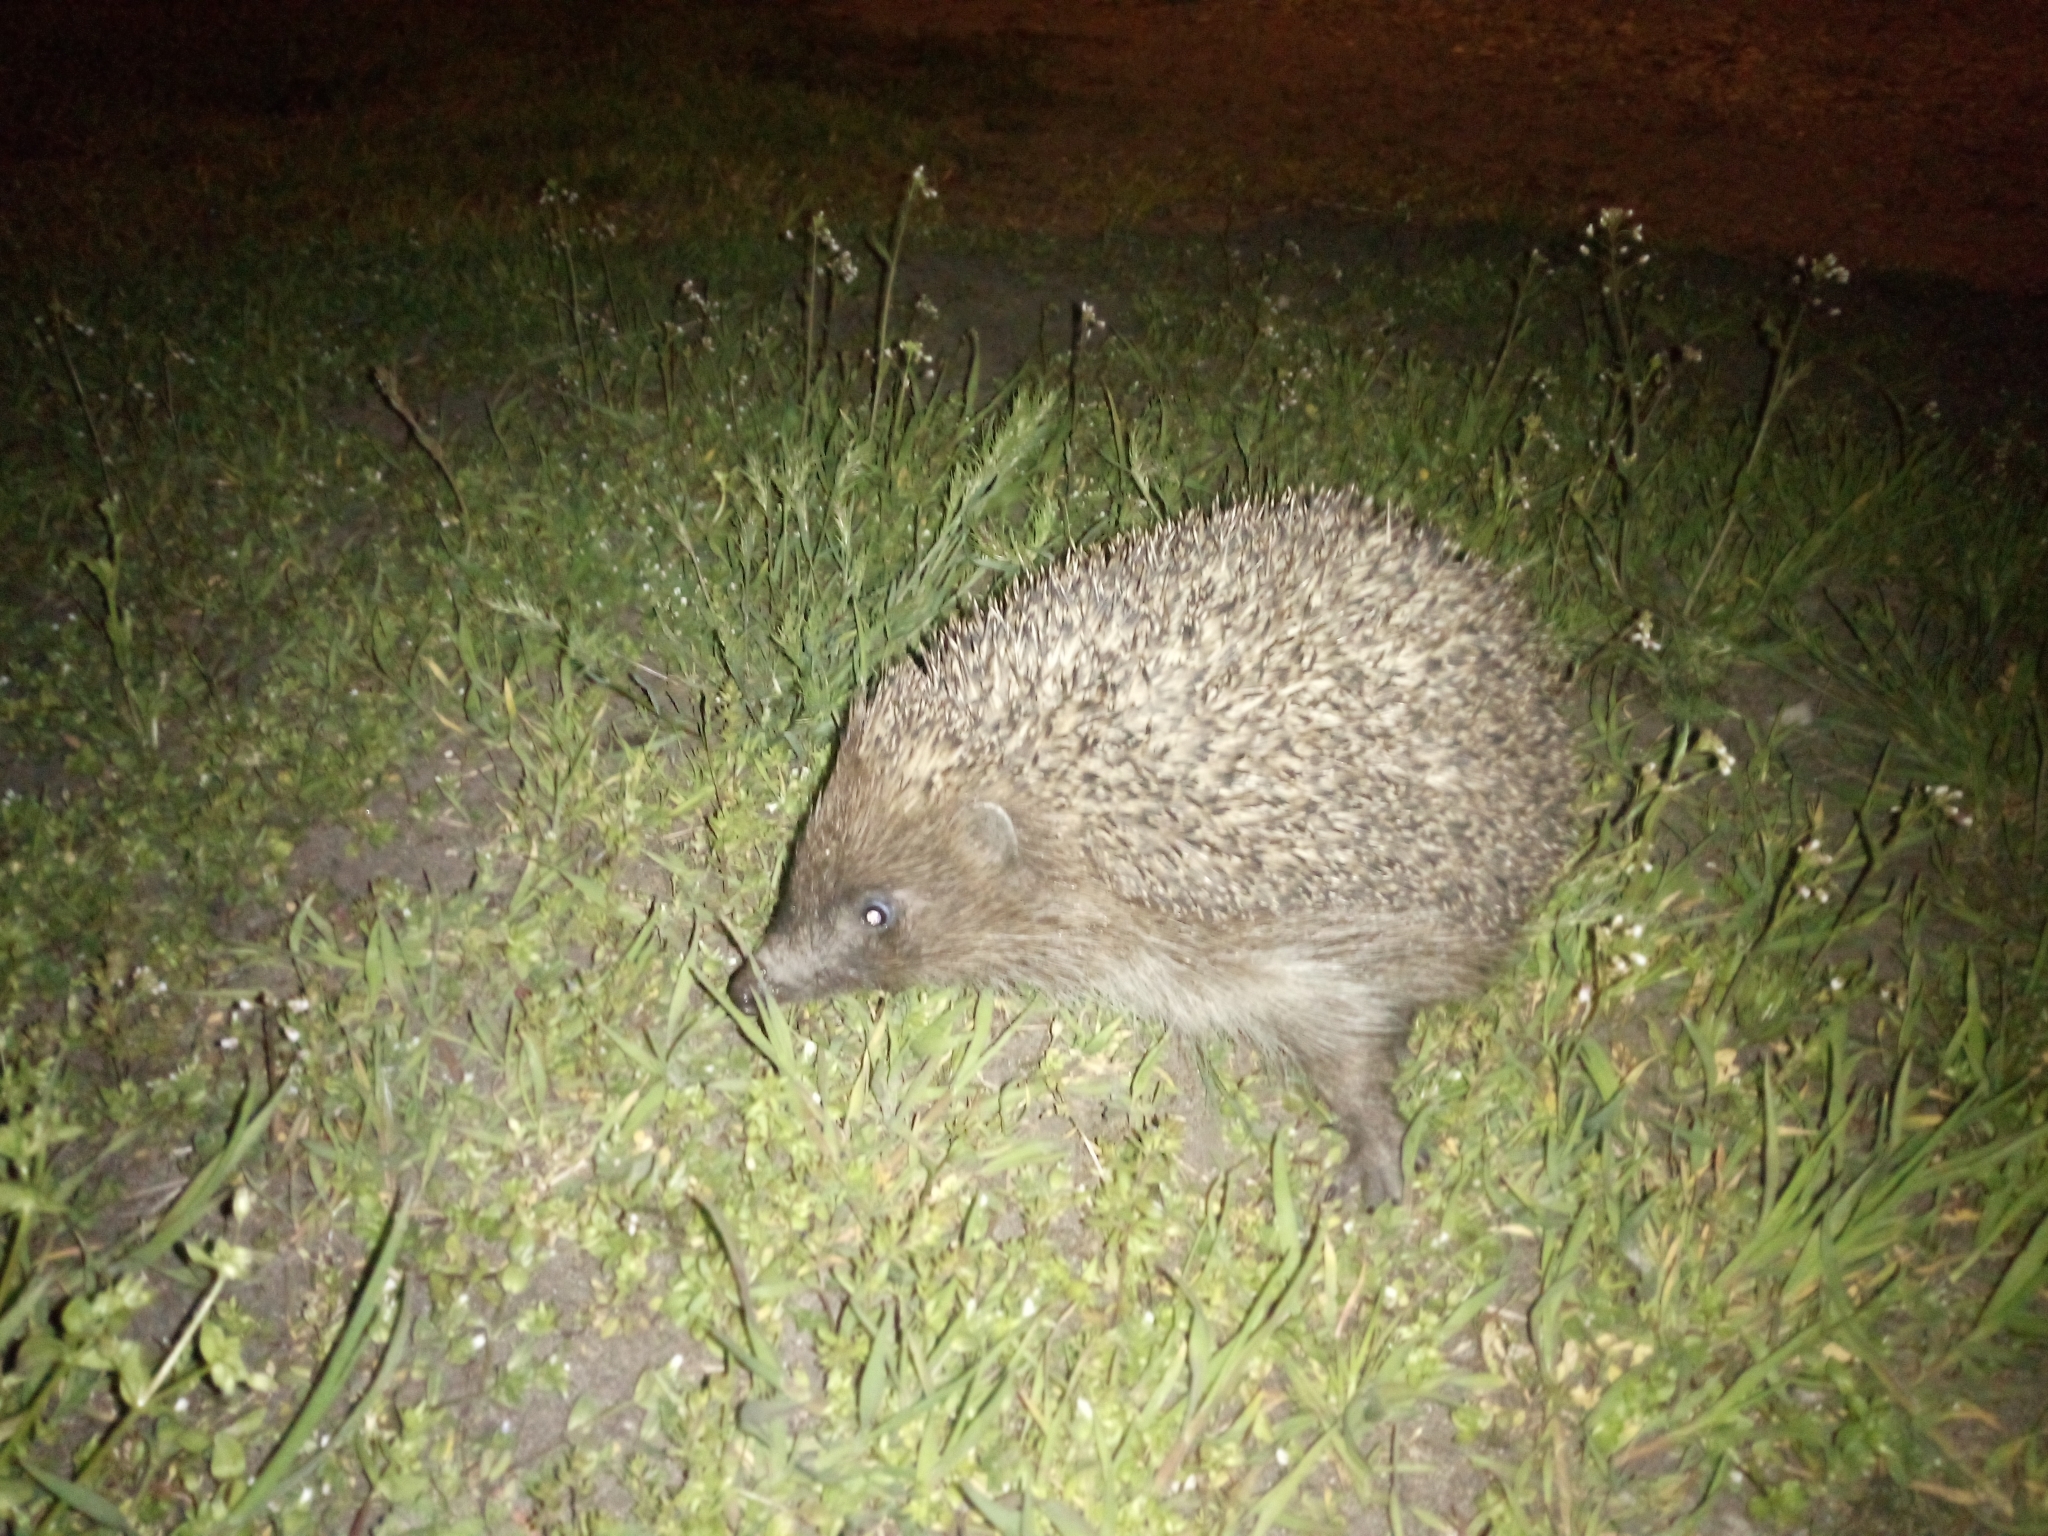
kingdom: Animalia
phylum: Chordata
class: Mammalia
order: Erinaceomorpha
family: Erinaceidae
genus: Erinaceus
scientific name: Erinaceus roumanicus
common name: Northern white-breasted hedgehog
